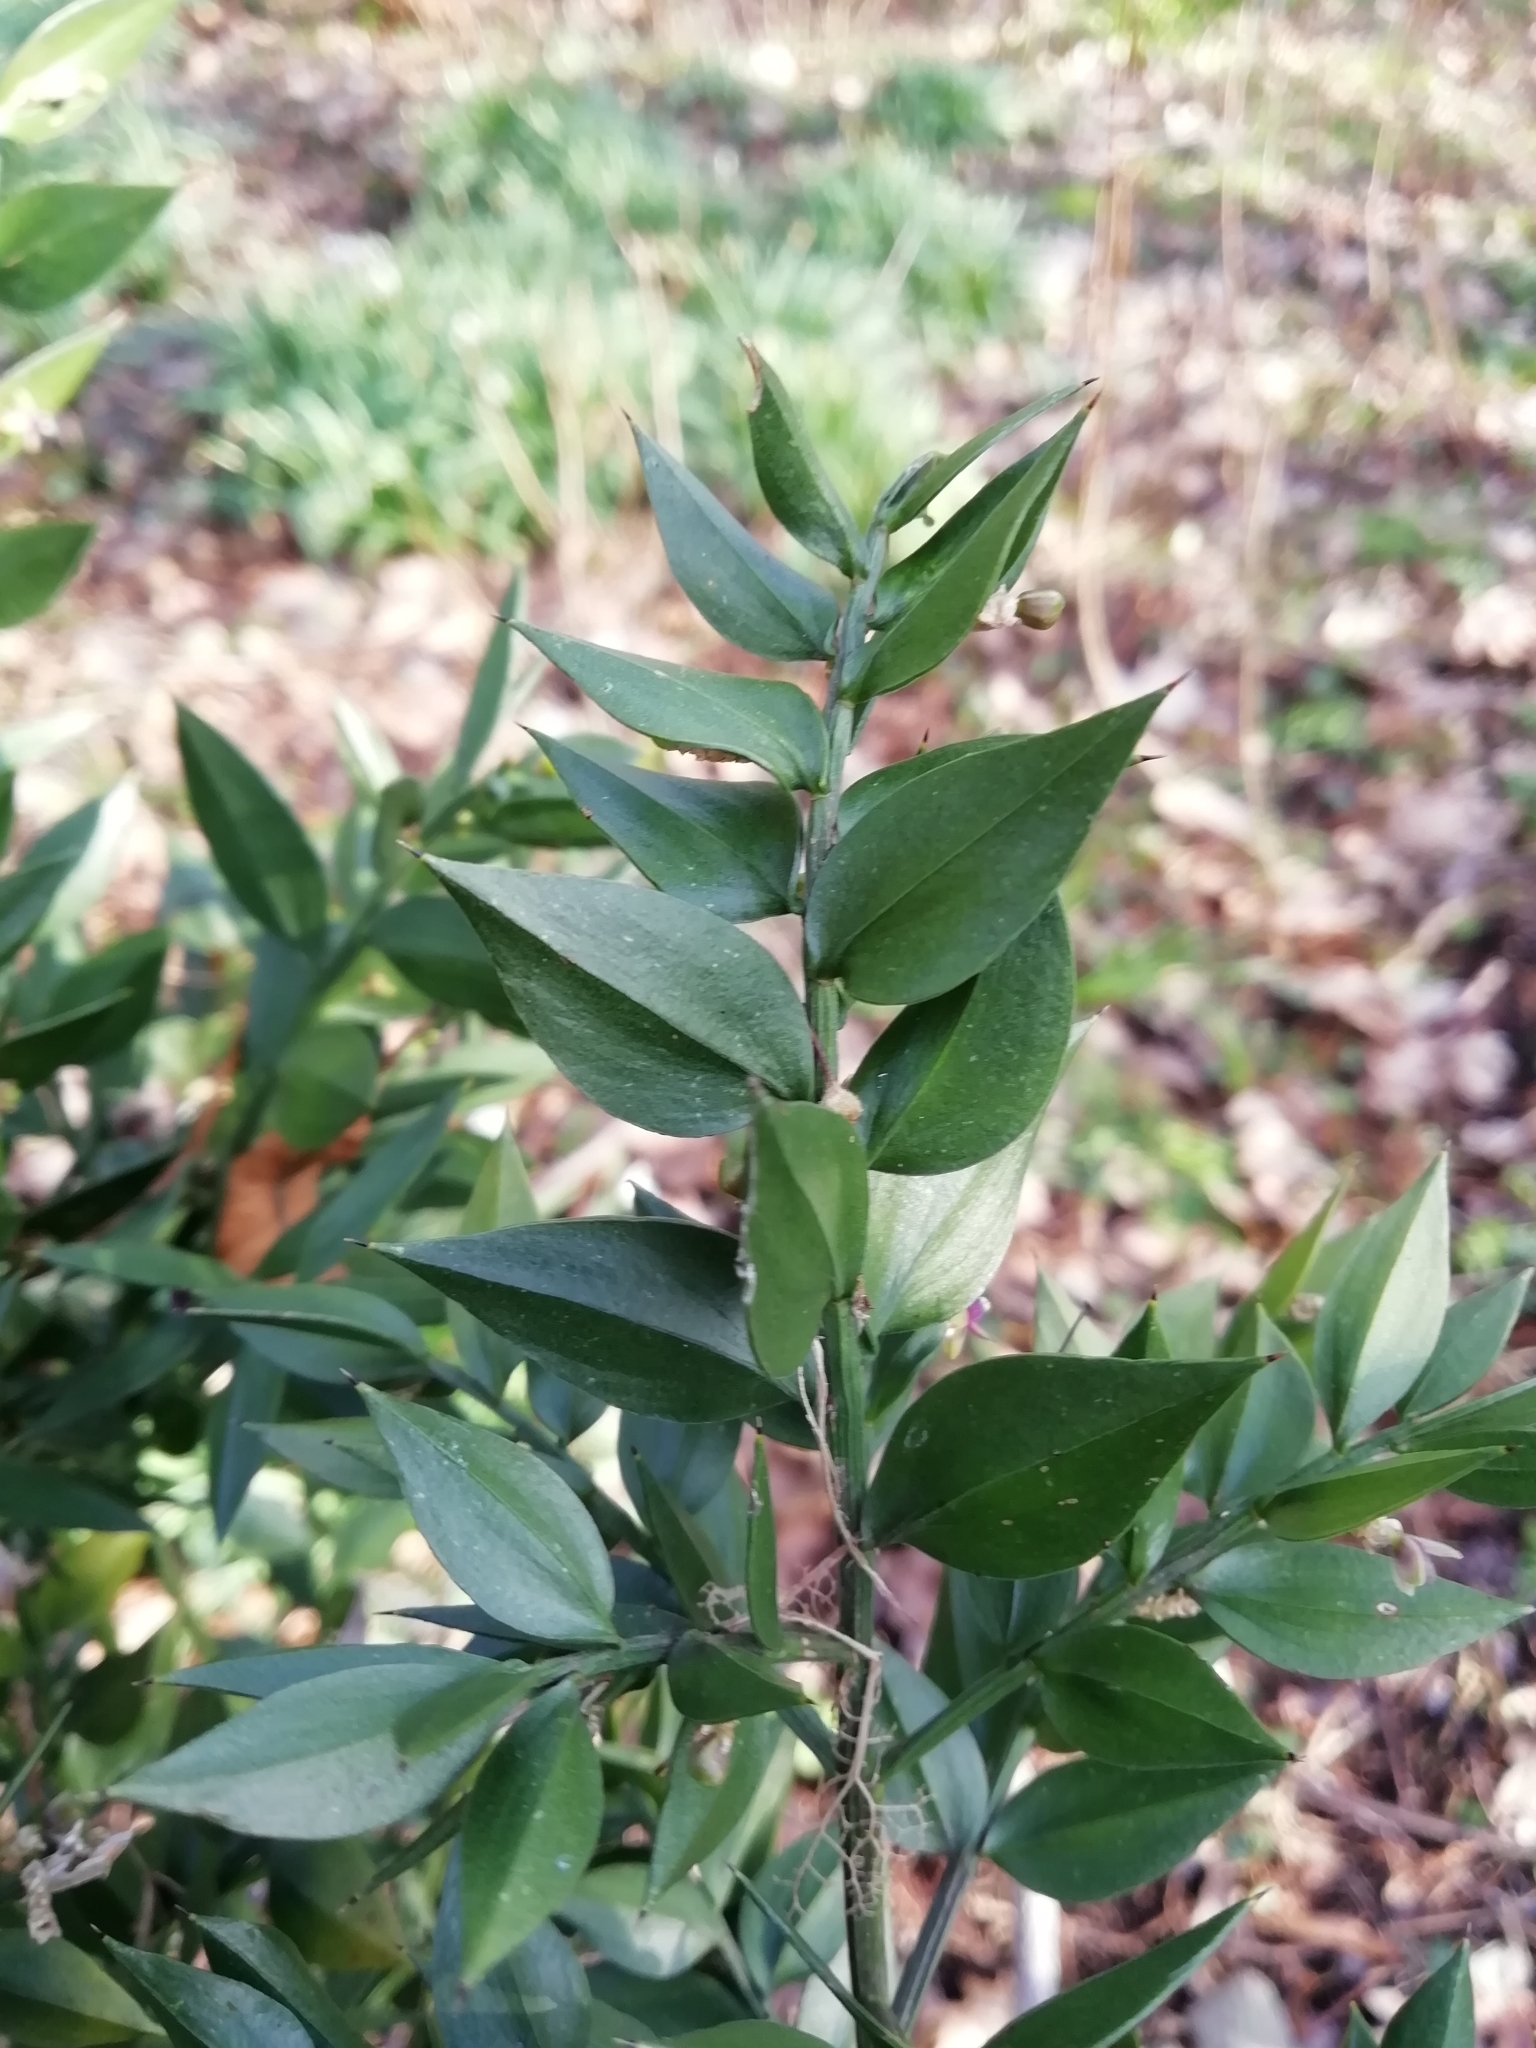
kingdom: Plantae
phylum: Tracheophyta
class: Liliopsida
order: Asparagales
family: Asparagaceae
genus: Ruscus
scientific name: Ruscus aculeatus
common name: Butcher's-broom
